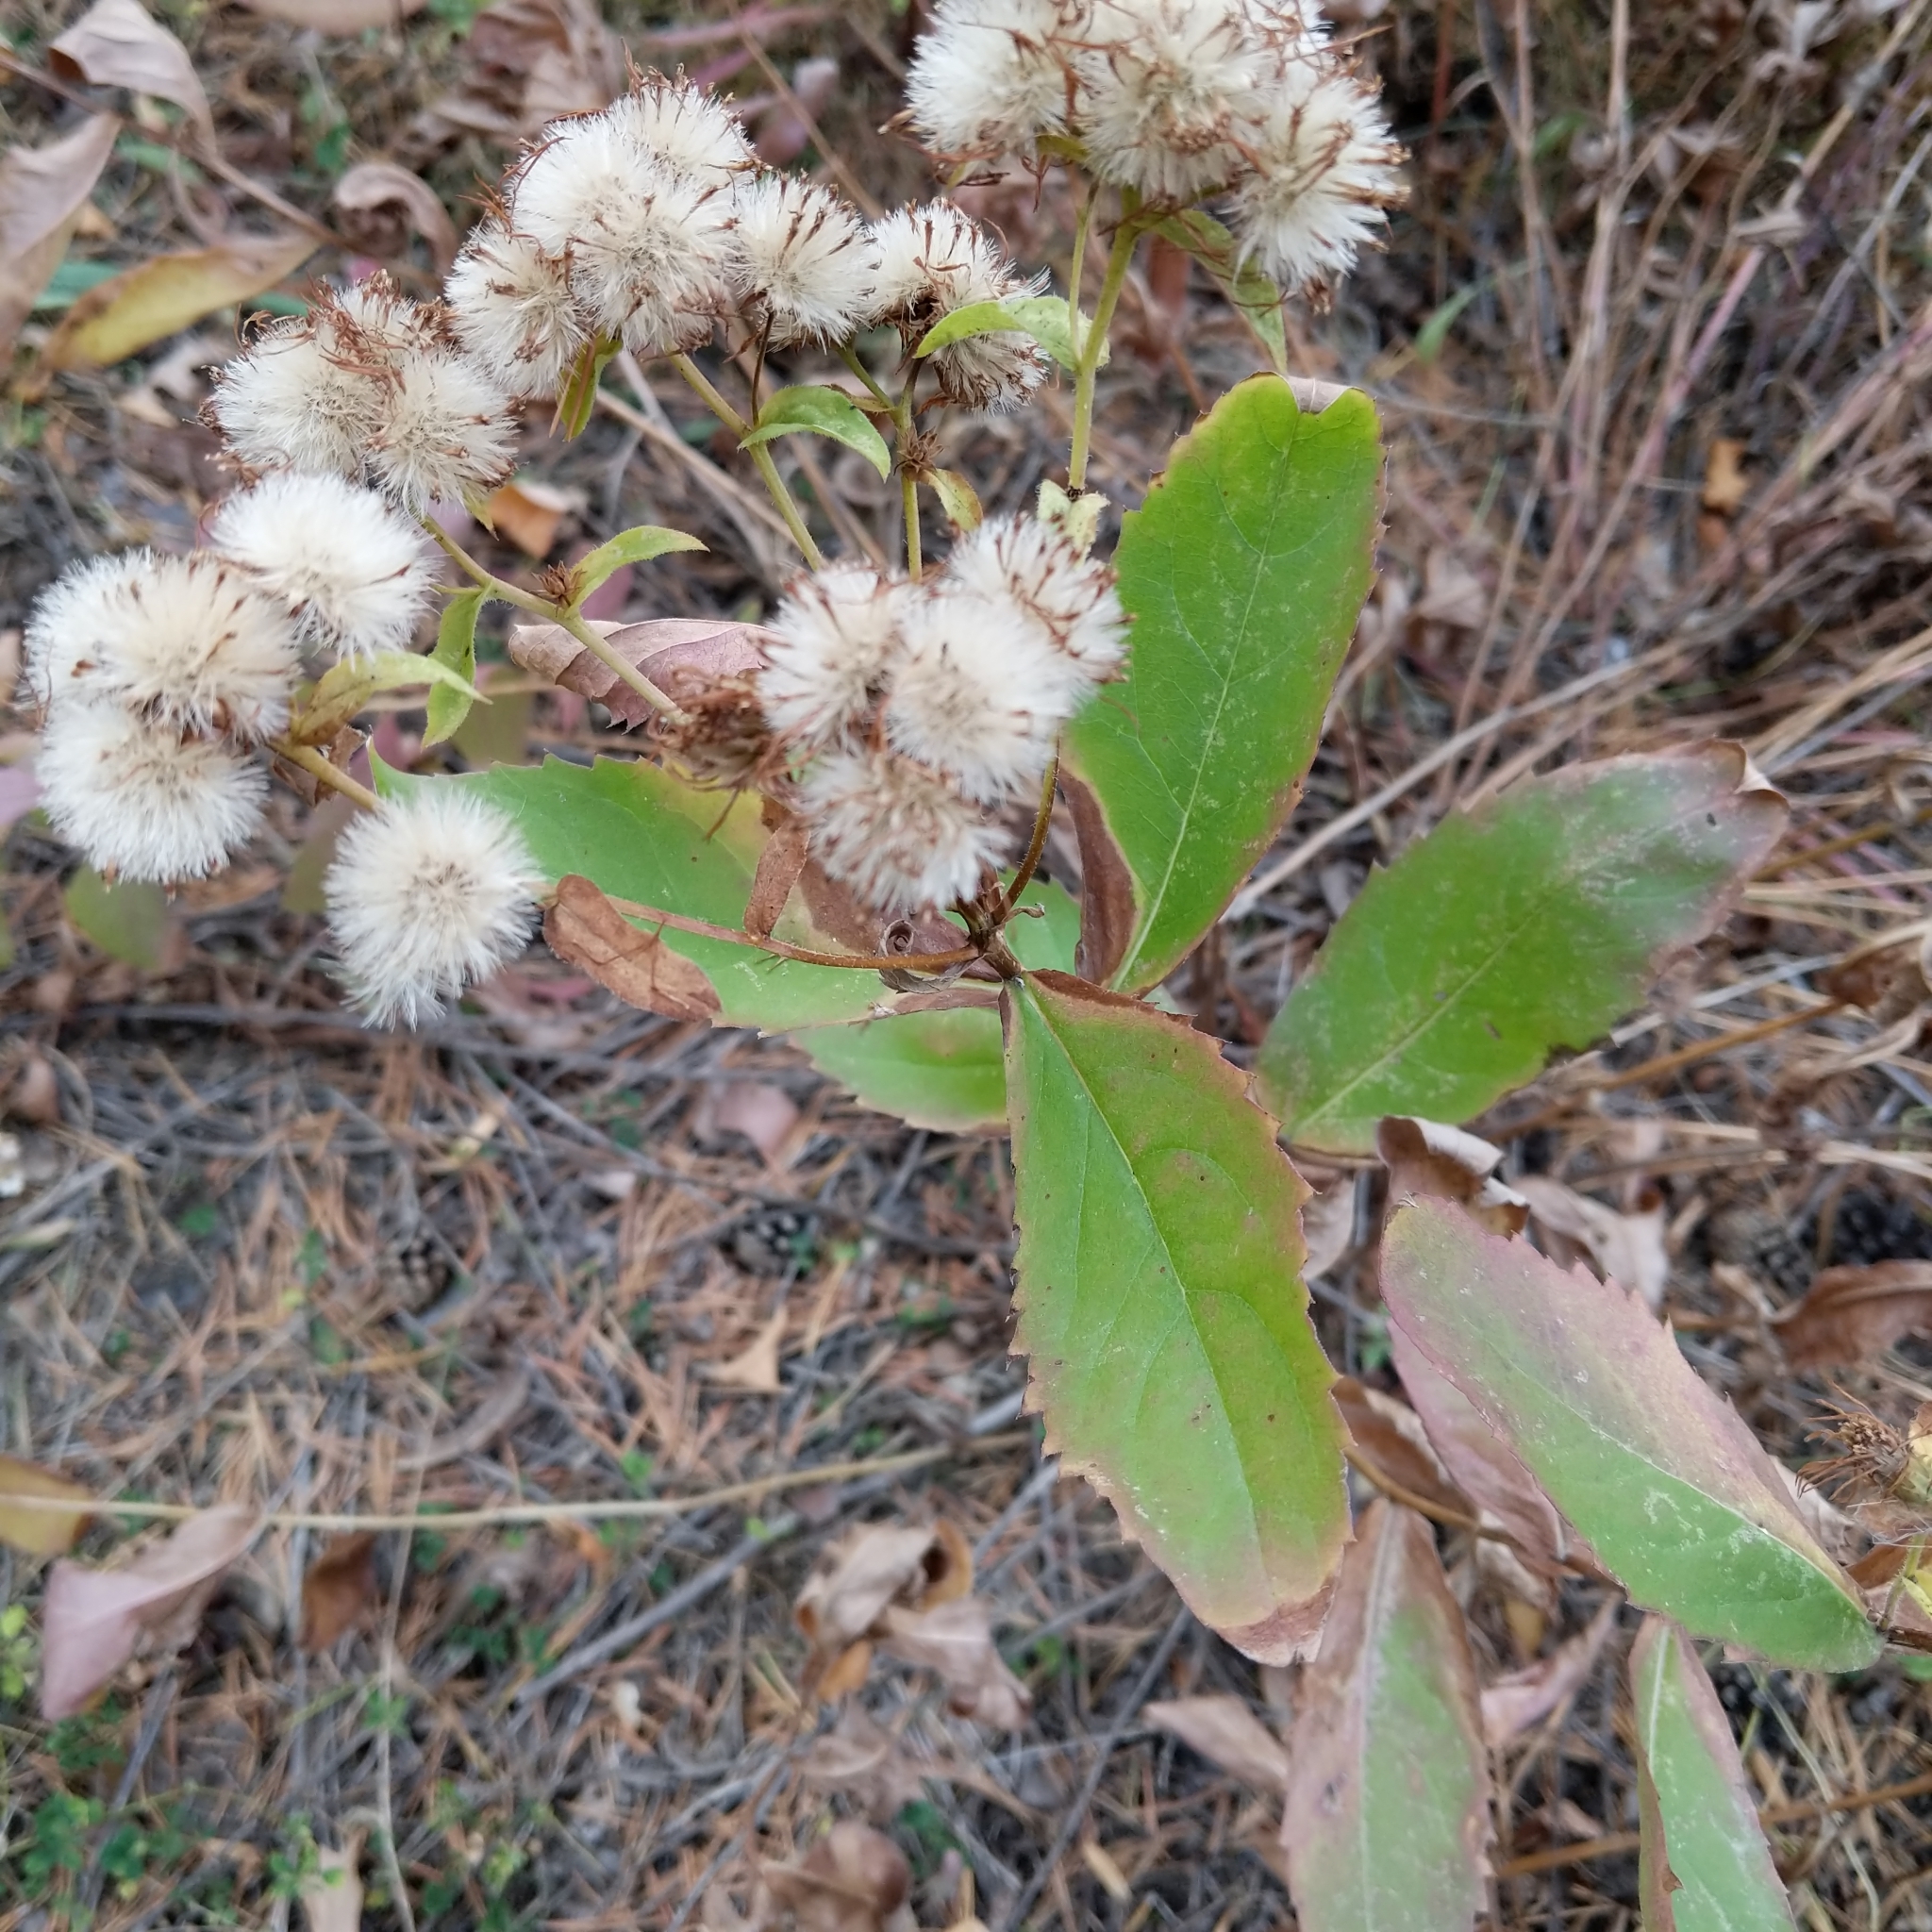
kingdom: Plantae
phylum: Tracheophyta
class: Magnoliopsida
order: Asterales
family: Asteraceae
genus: Eurybia
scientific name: Eurybia conspicua
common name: Showy aster
